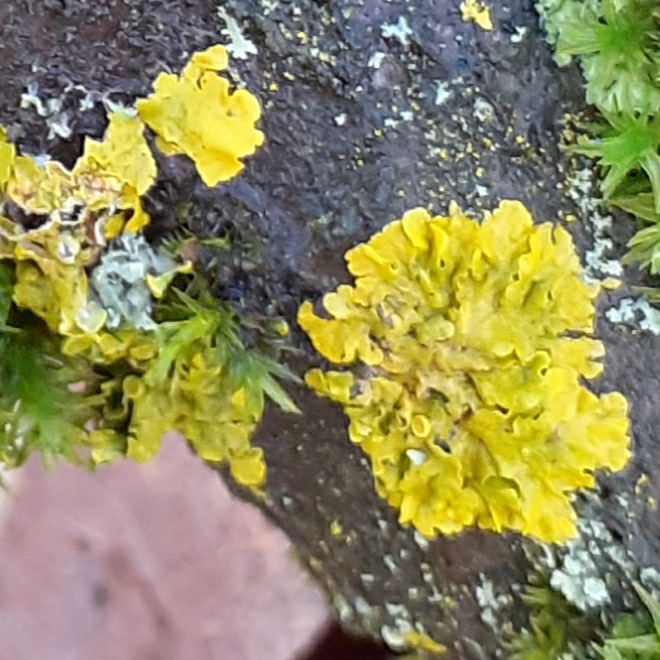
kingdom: Fungi
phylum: Ascomycota
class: Lecanoromycetes
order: Teloschistales
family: Teloschistaceae
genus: Xanthoria
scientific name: Xanthoria parietina
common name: Common orange lichen
